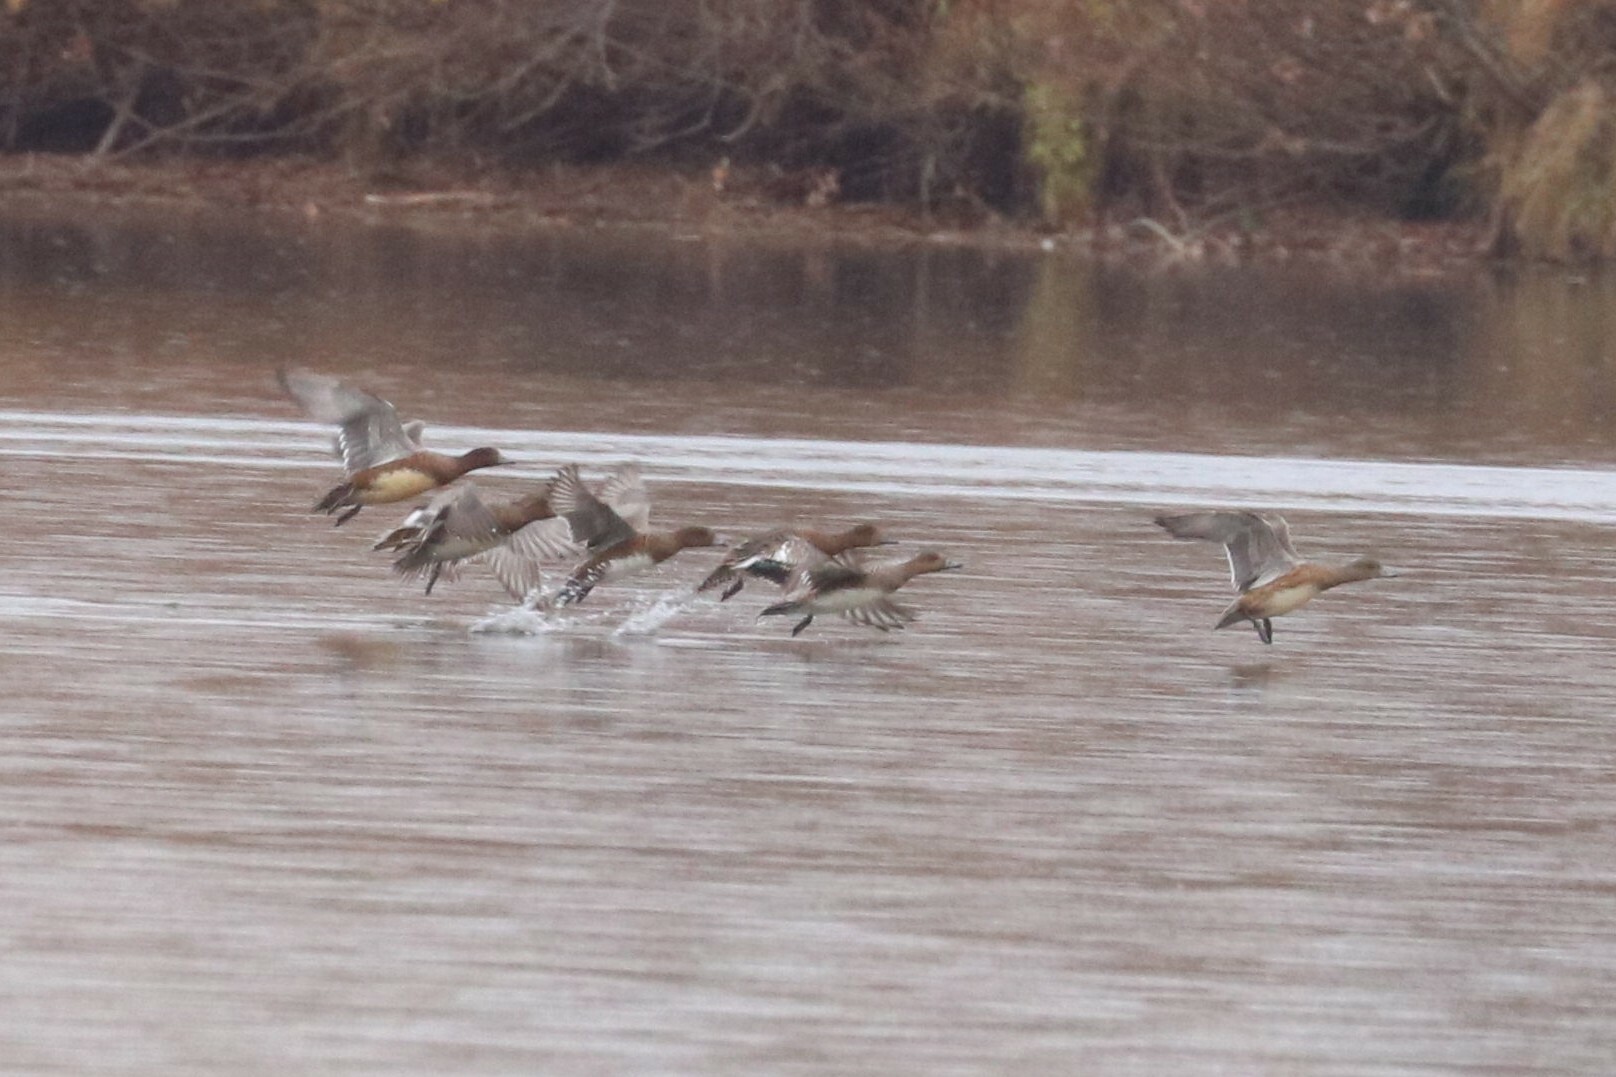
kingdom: Animalia
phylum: Chordata
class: Aves
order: Anseriformes
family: Anatidae
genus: Mareca
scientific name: Mareca penelope
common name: Eurasian wigeon
